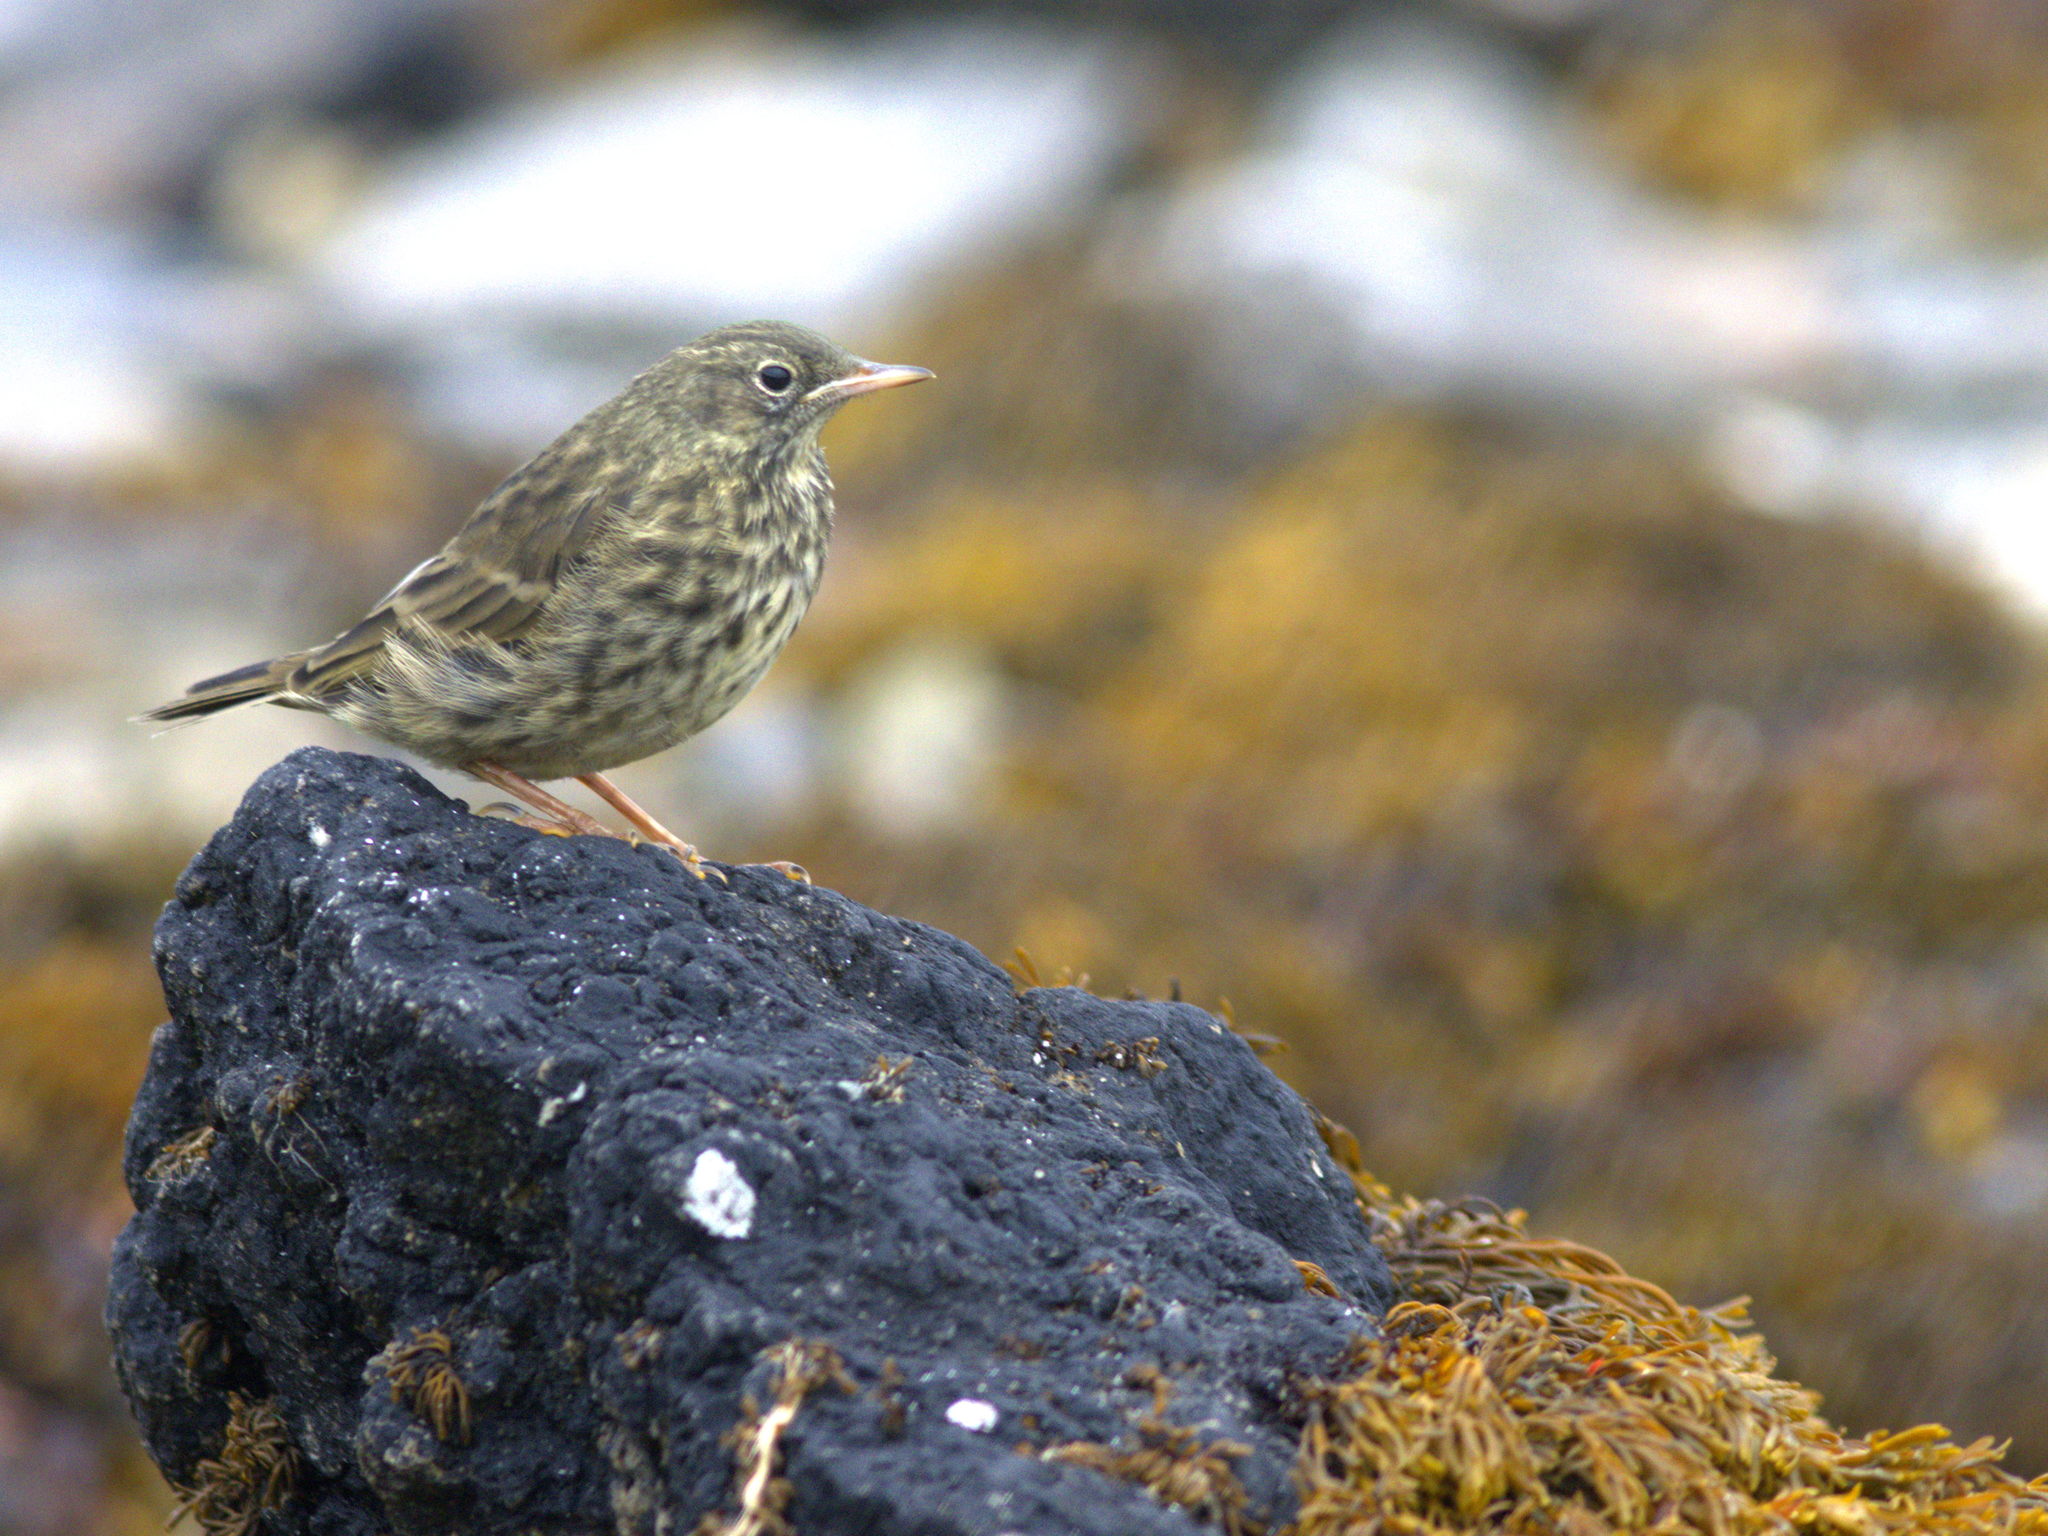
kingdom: Animalia
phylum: Chordata
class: Aves
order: Passeriformes
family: Motacillidae
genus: Anthus
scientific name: Anthus pratensis
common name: Meadow pipit
